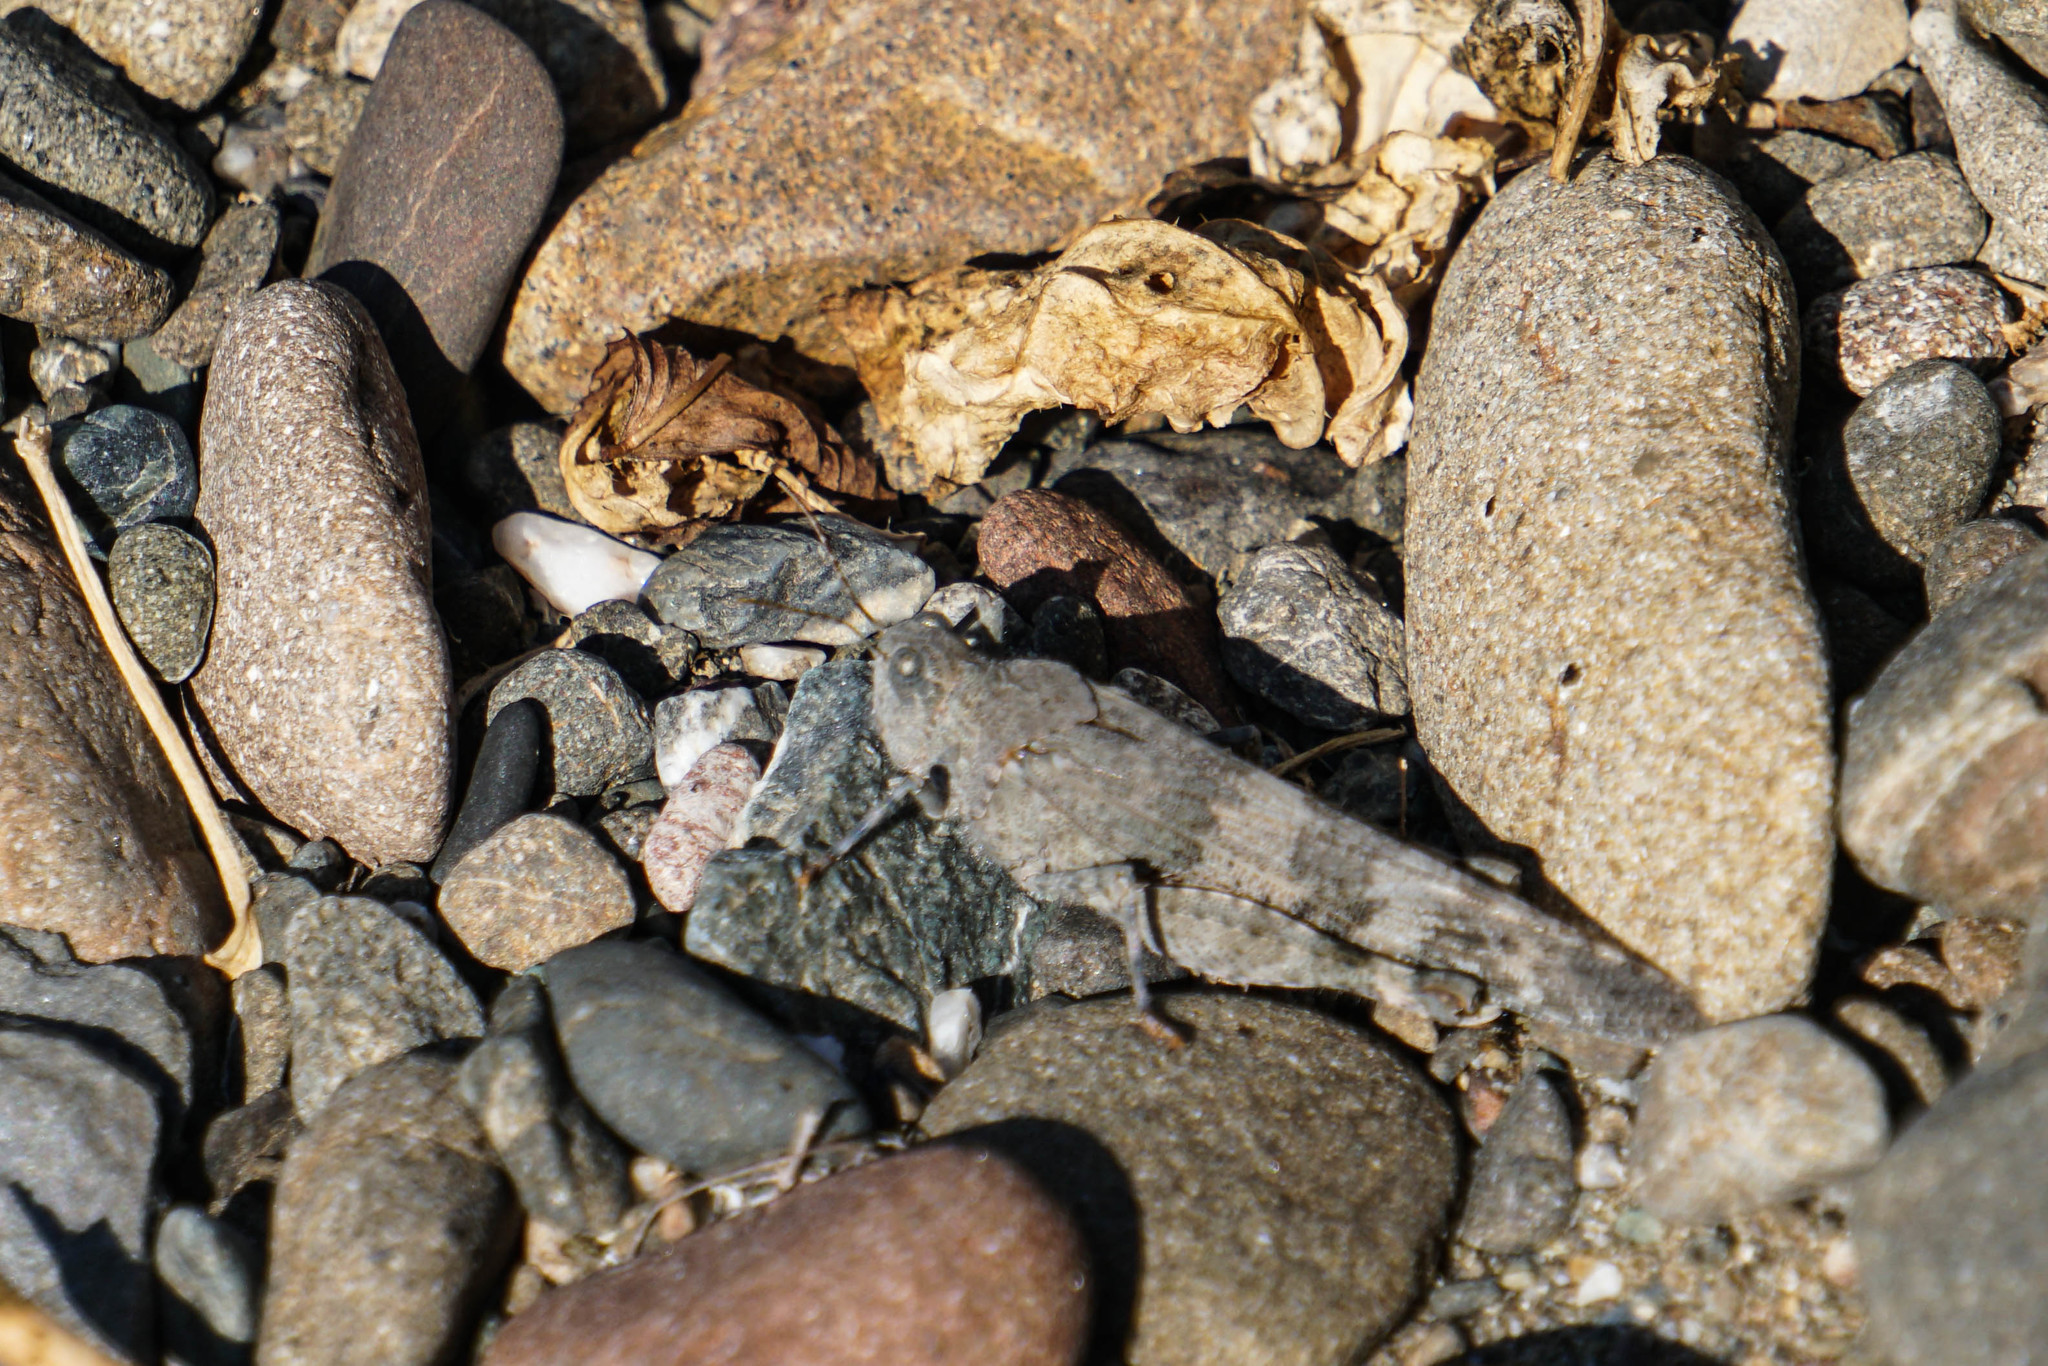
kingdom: Animalia
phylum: Arthropoda
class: Insecta
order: Orthoptera
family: Acrididae
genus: Trimerotropis
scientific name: Trimerotropis pallidipennis
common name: Pallid-winged grasshopper
